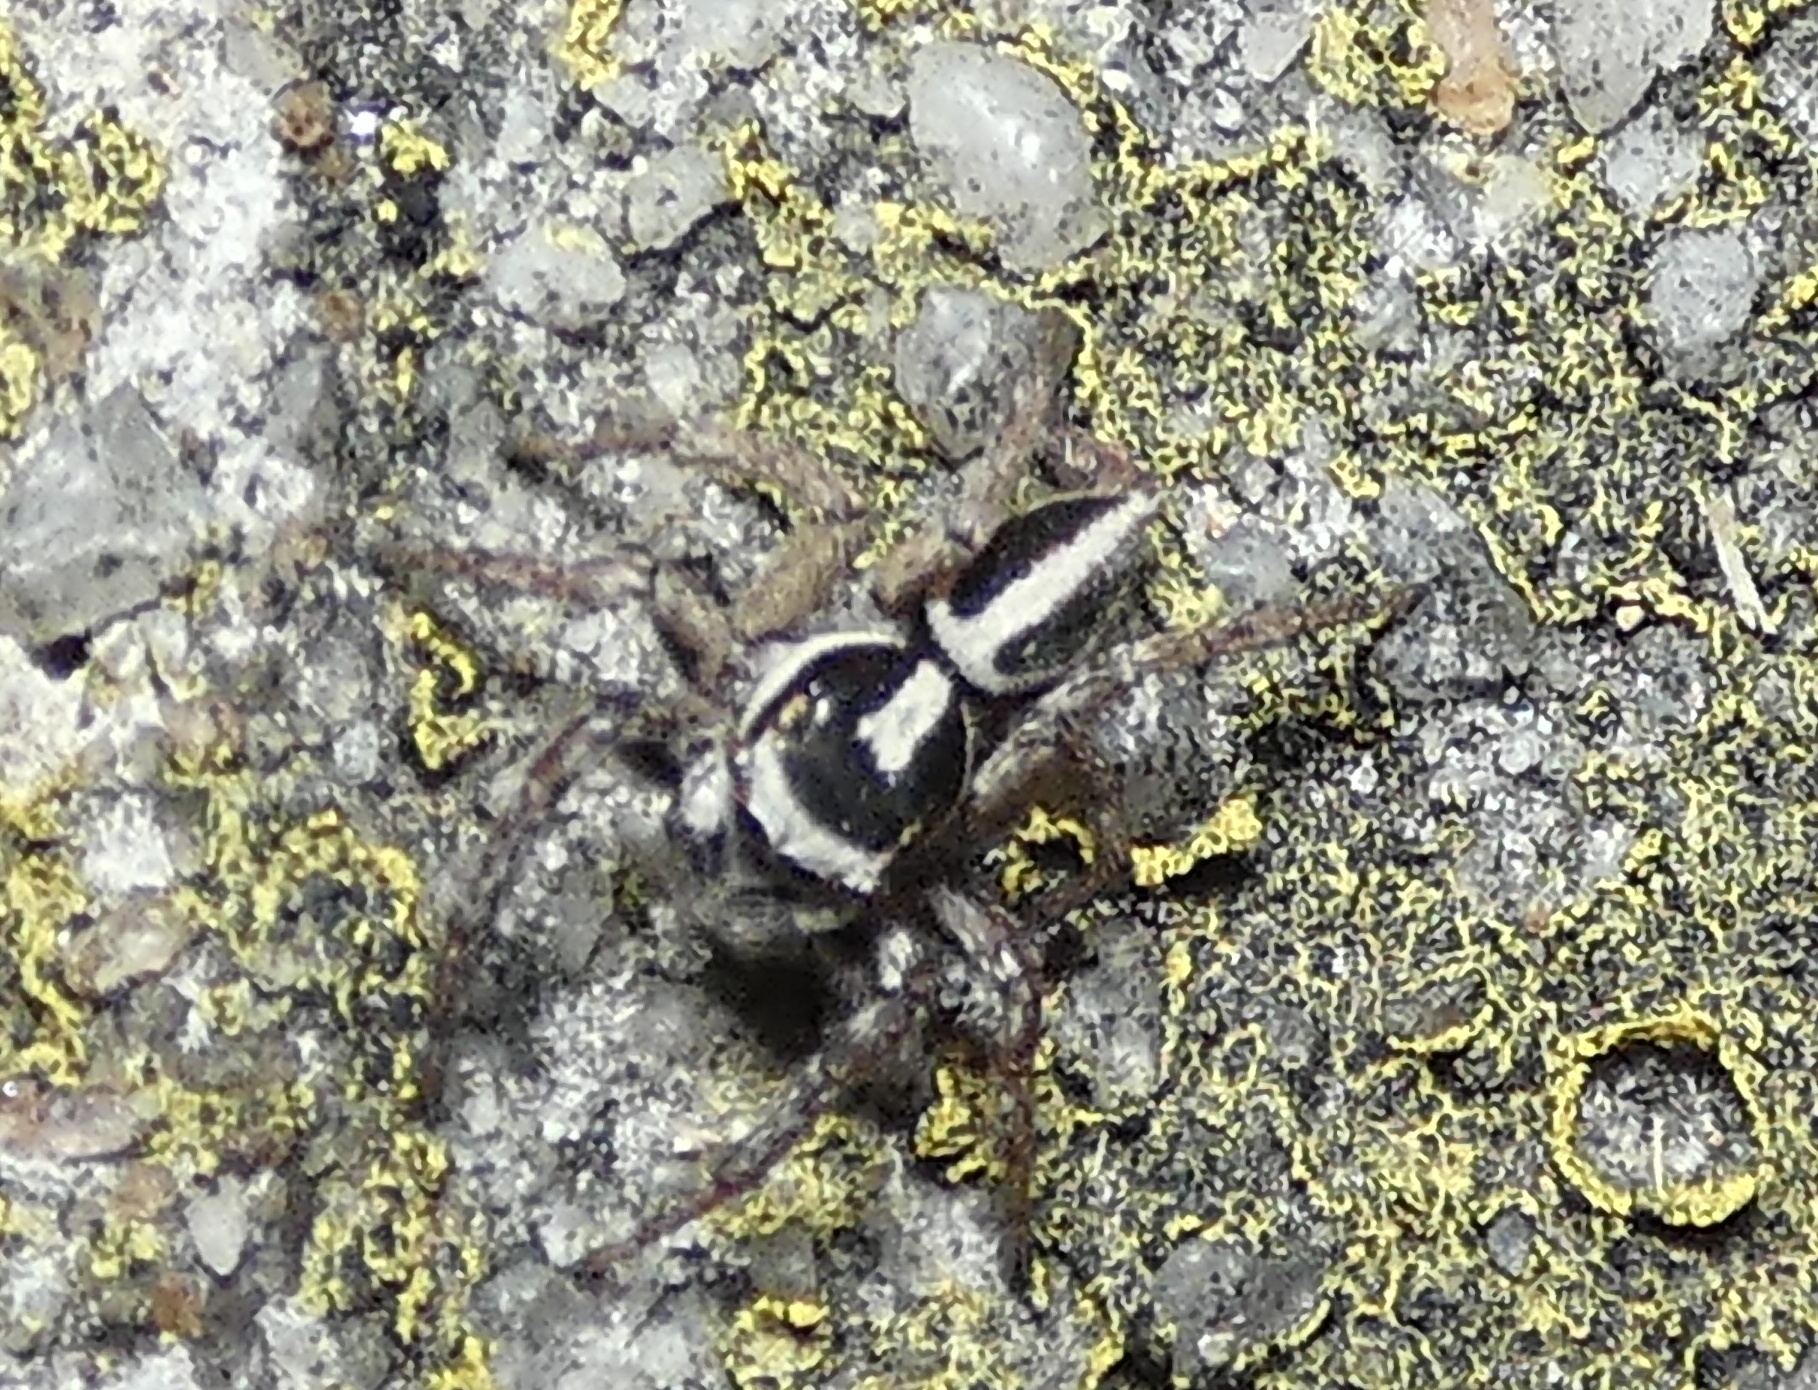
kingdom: Animalia
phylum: Arthropoda
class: Arachnida
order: Araneae
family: Salticidae
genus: Leptofreya
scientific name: Leptofreya ambigua
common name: Jumping spider
